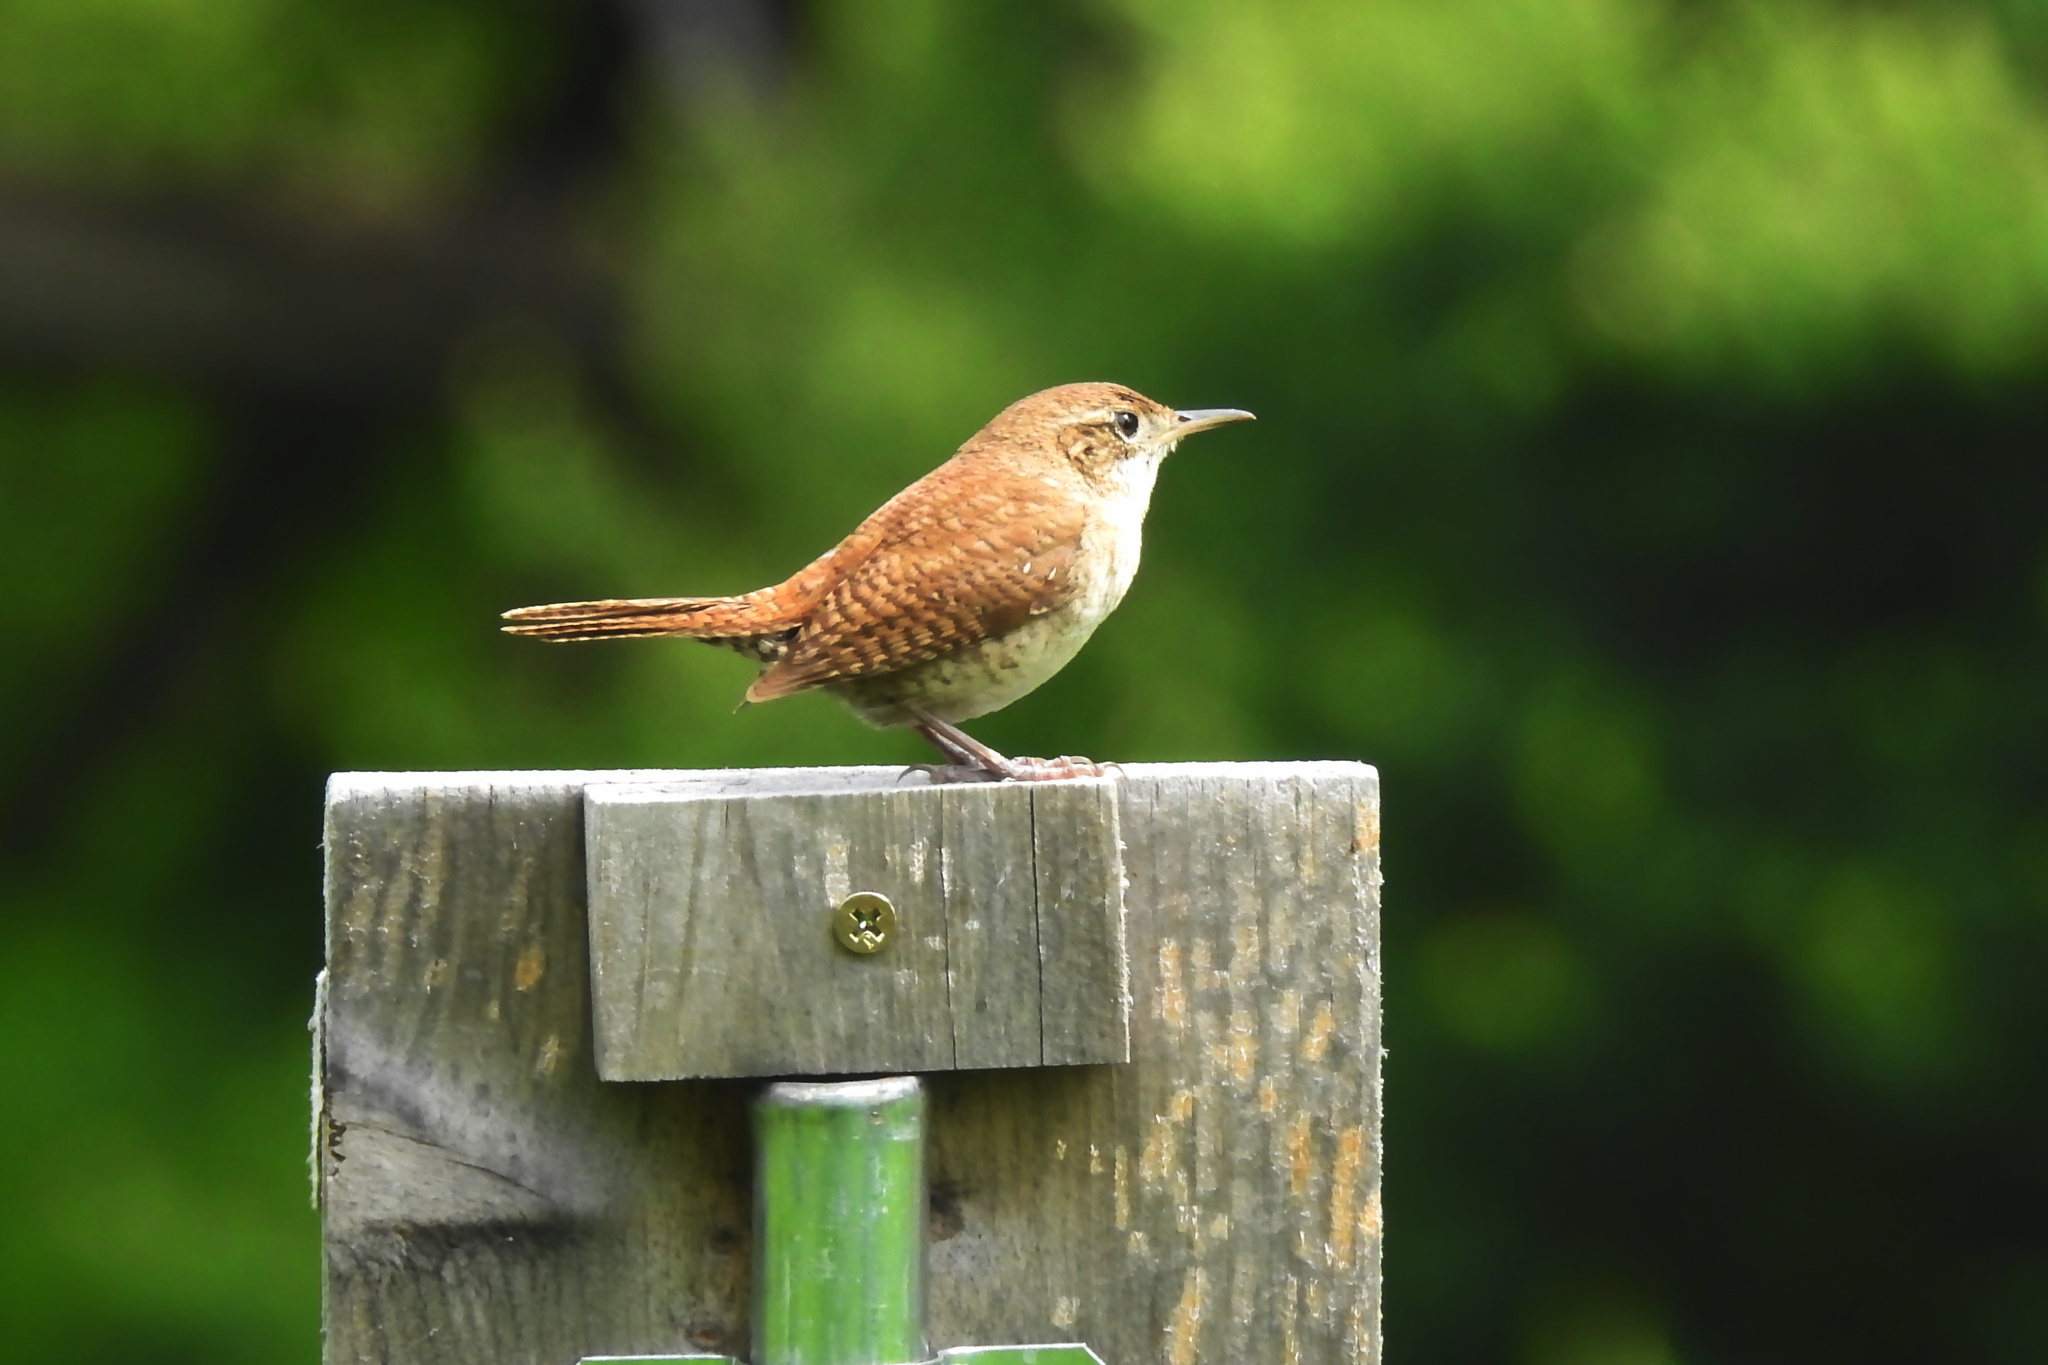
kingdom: Animalia
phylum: Chordata
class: Aves
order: Passeriformes
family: Troglodytidae
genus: Troglodytes
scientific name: Troglodytes aedon
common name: House wren
